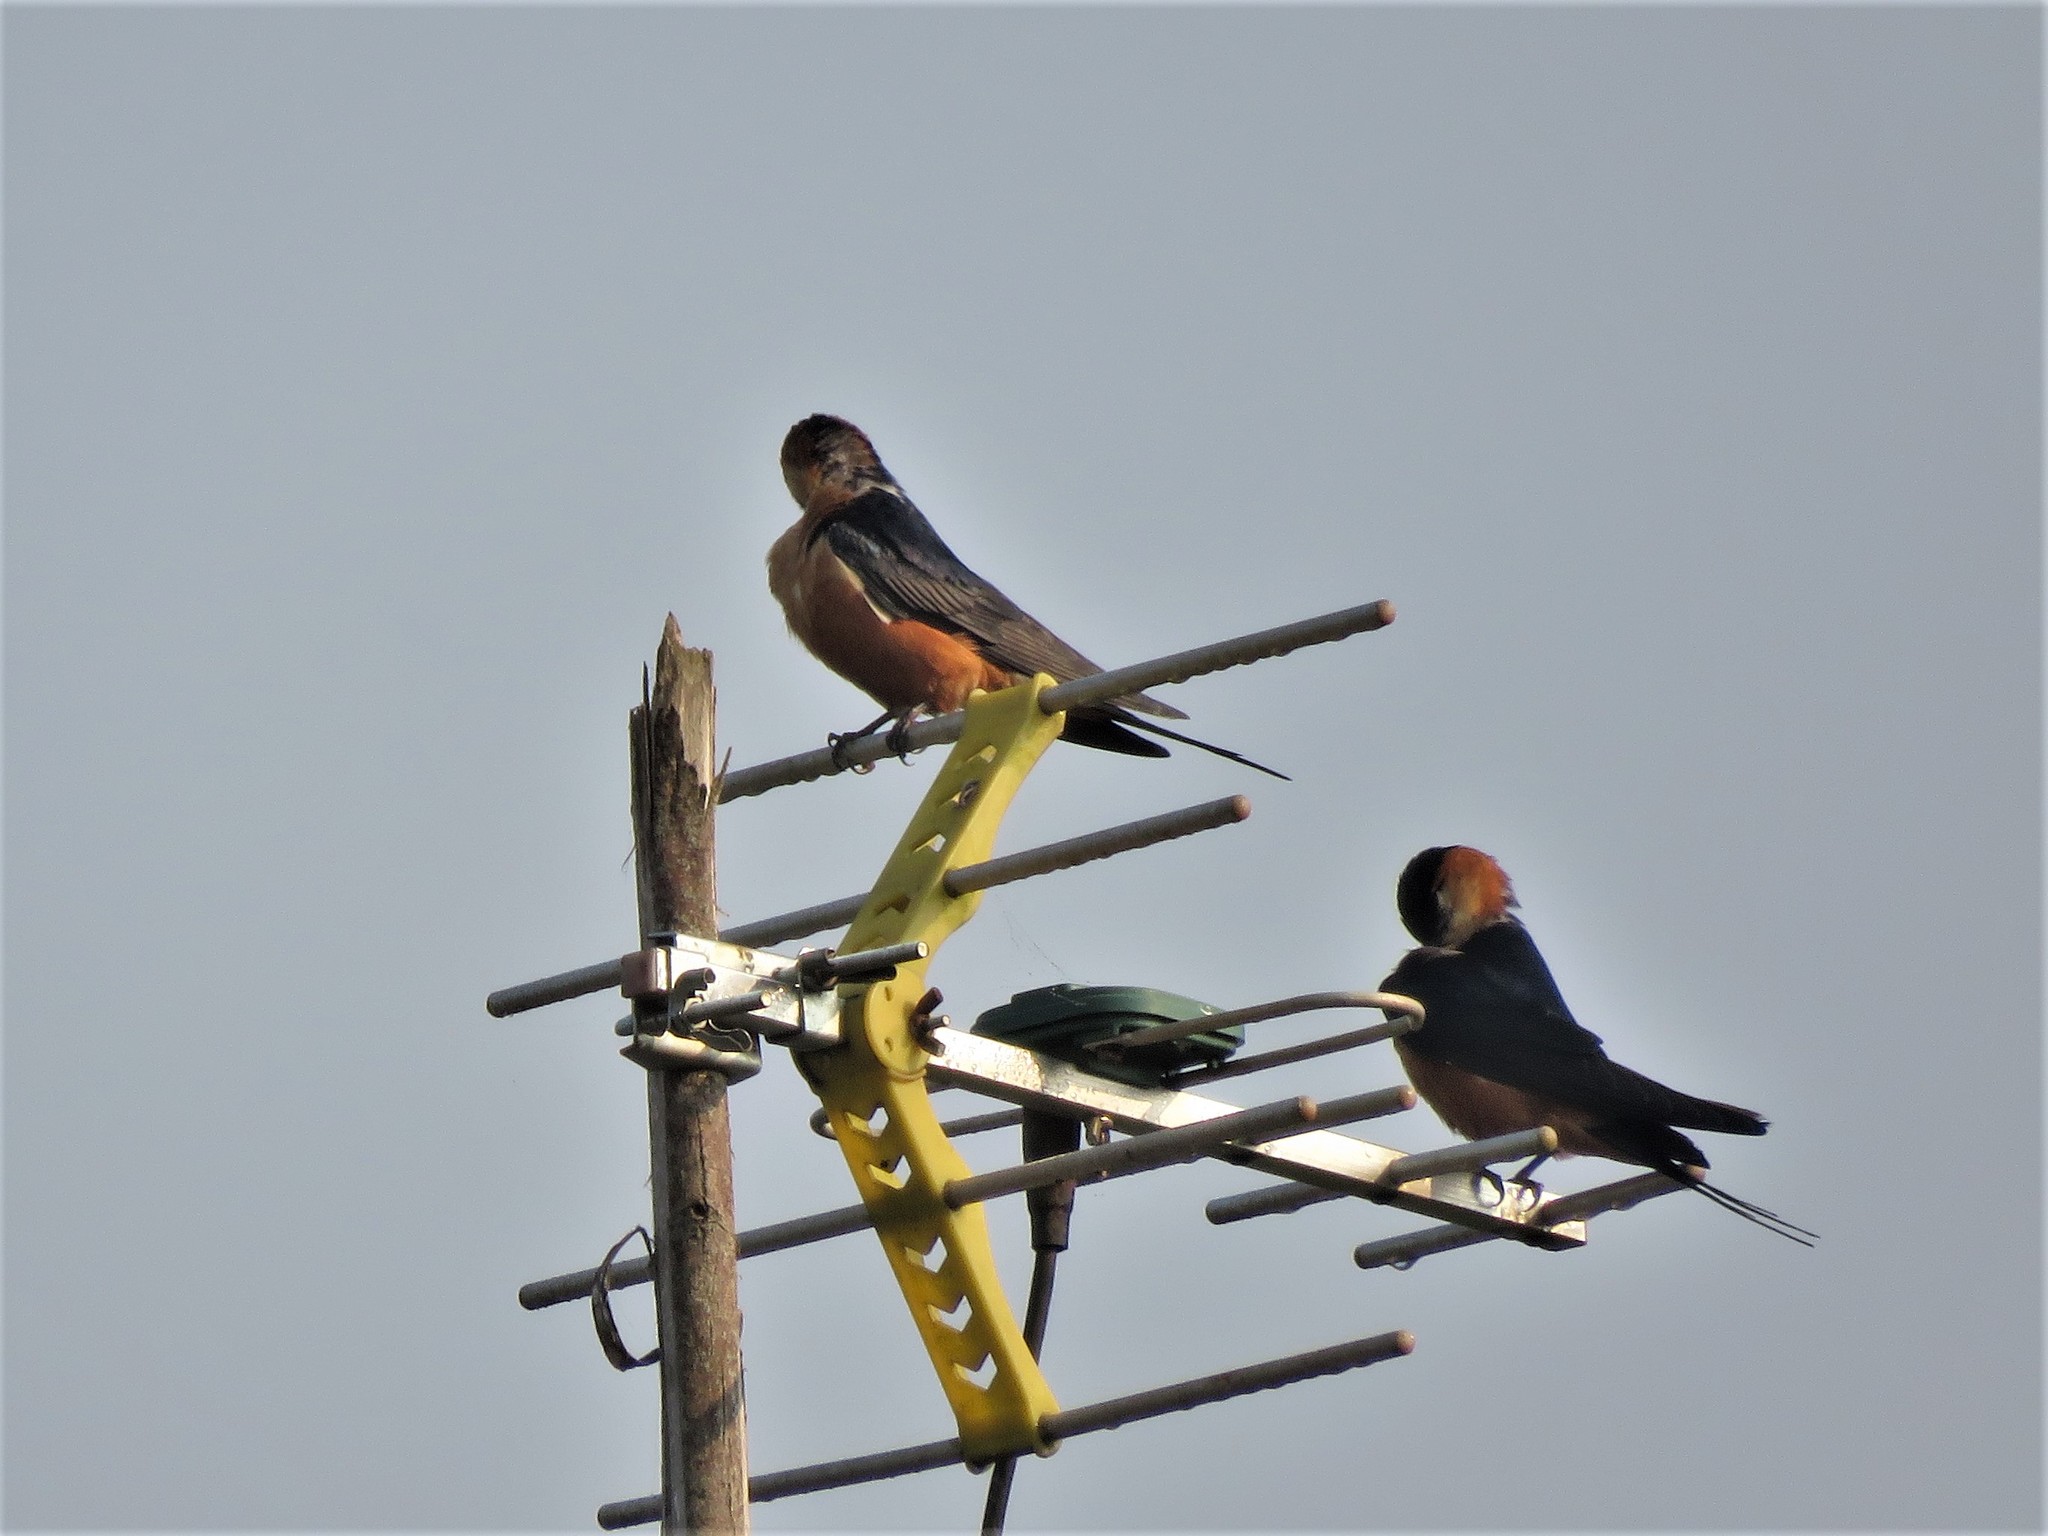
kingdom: Animalia
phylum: Chordata
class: Aves
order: Passeriformes
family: Hirundinidae
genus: Cecropis
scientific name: Cecropis senegalensis
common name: Mosque swallow
